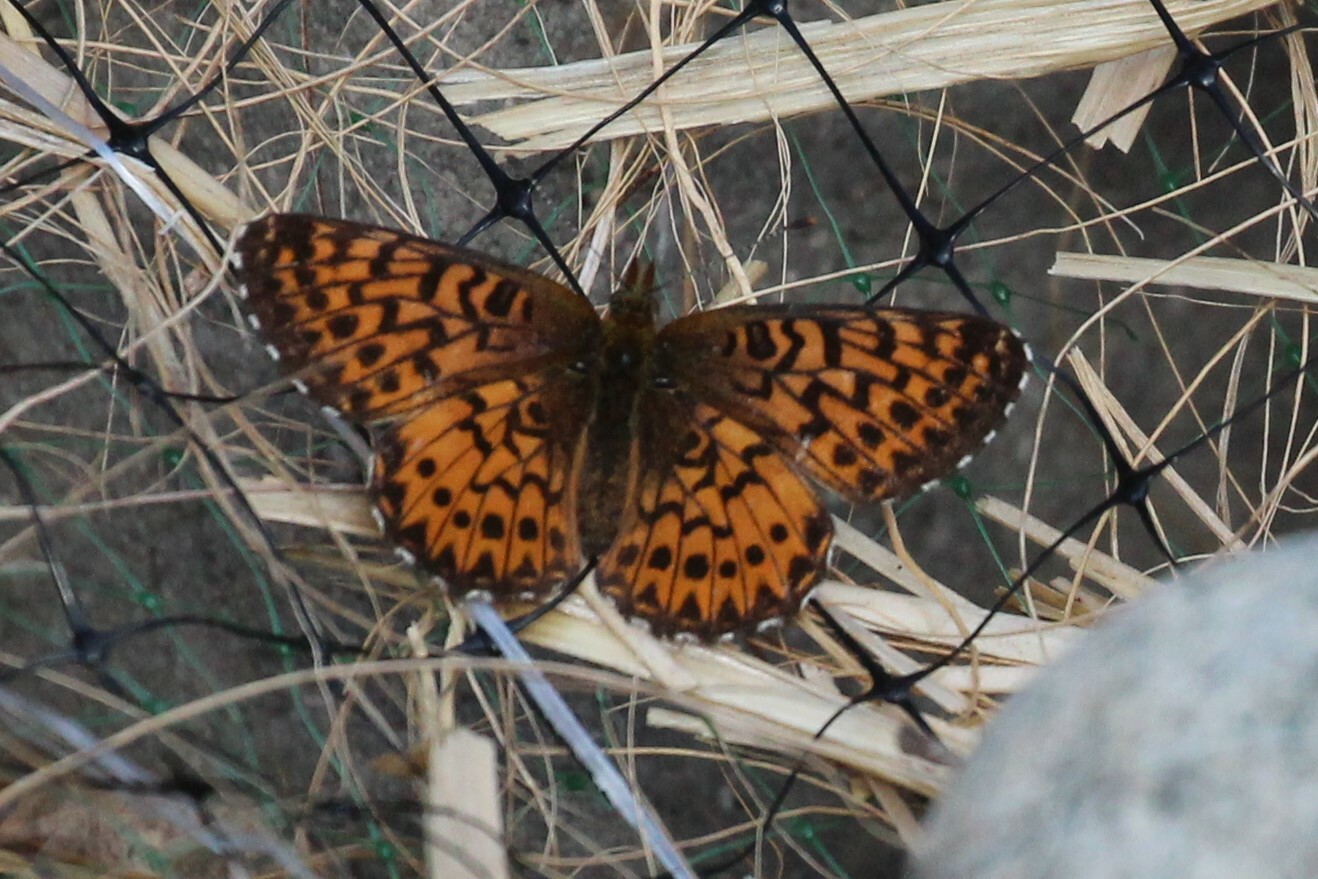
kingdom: Animalia
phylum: Arthropoda
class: Insecta
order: Lepidoptera
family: Nymphalidae
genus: Boloria
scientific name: Boloria chariclea
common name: Arctic fritillary
